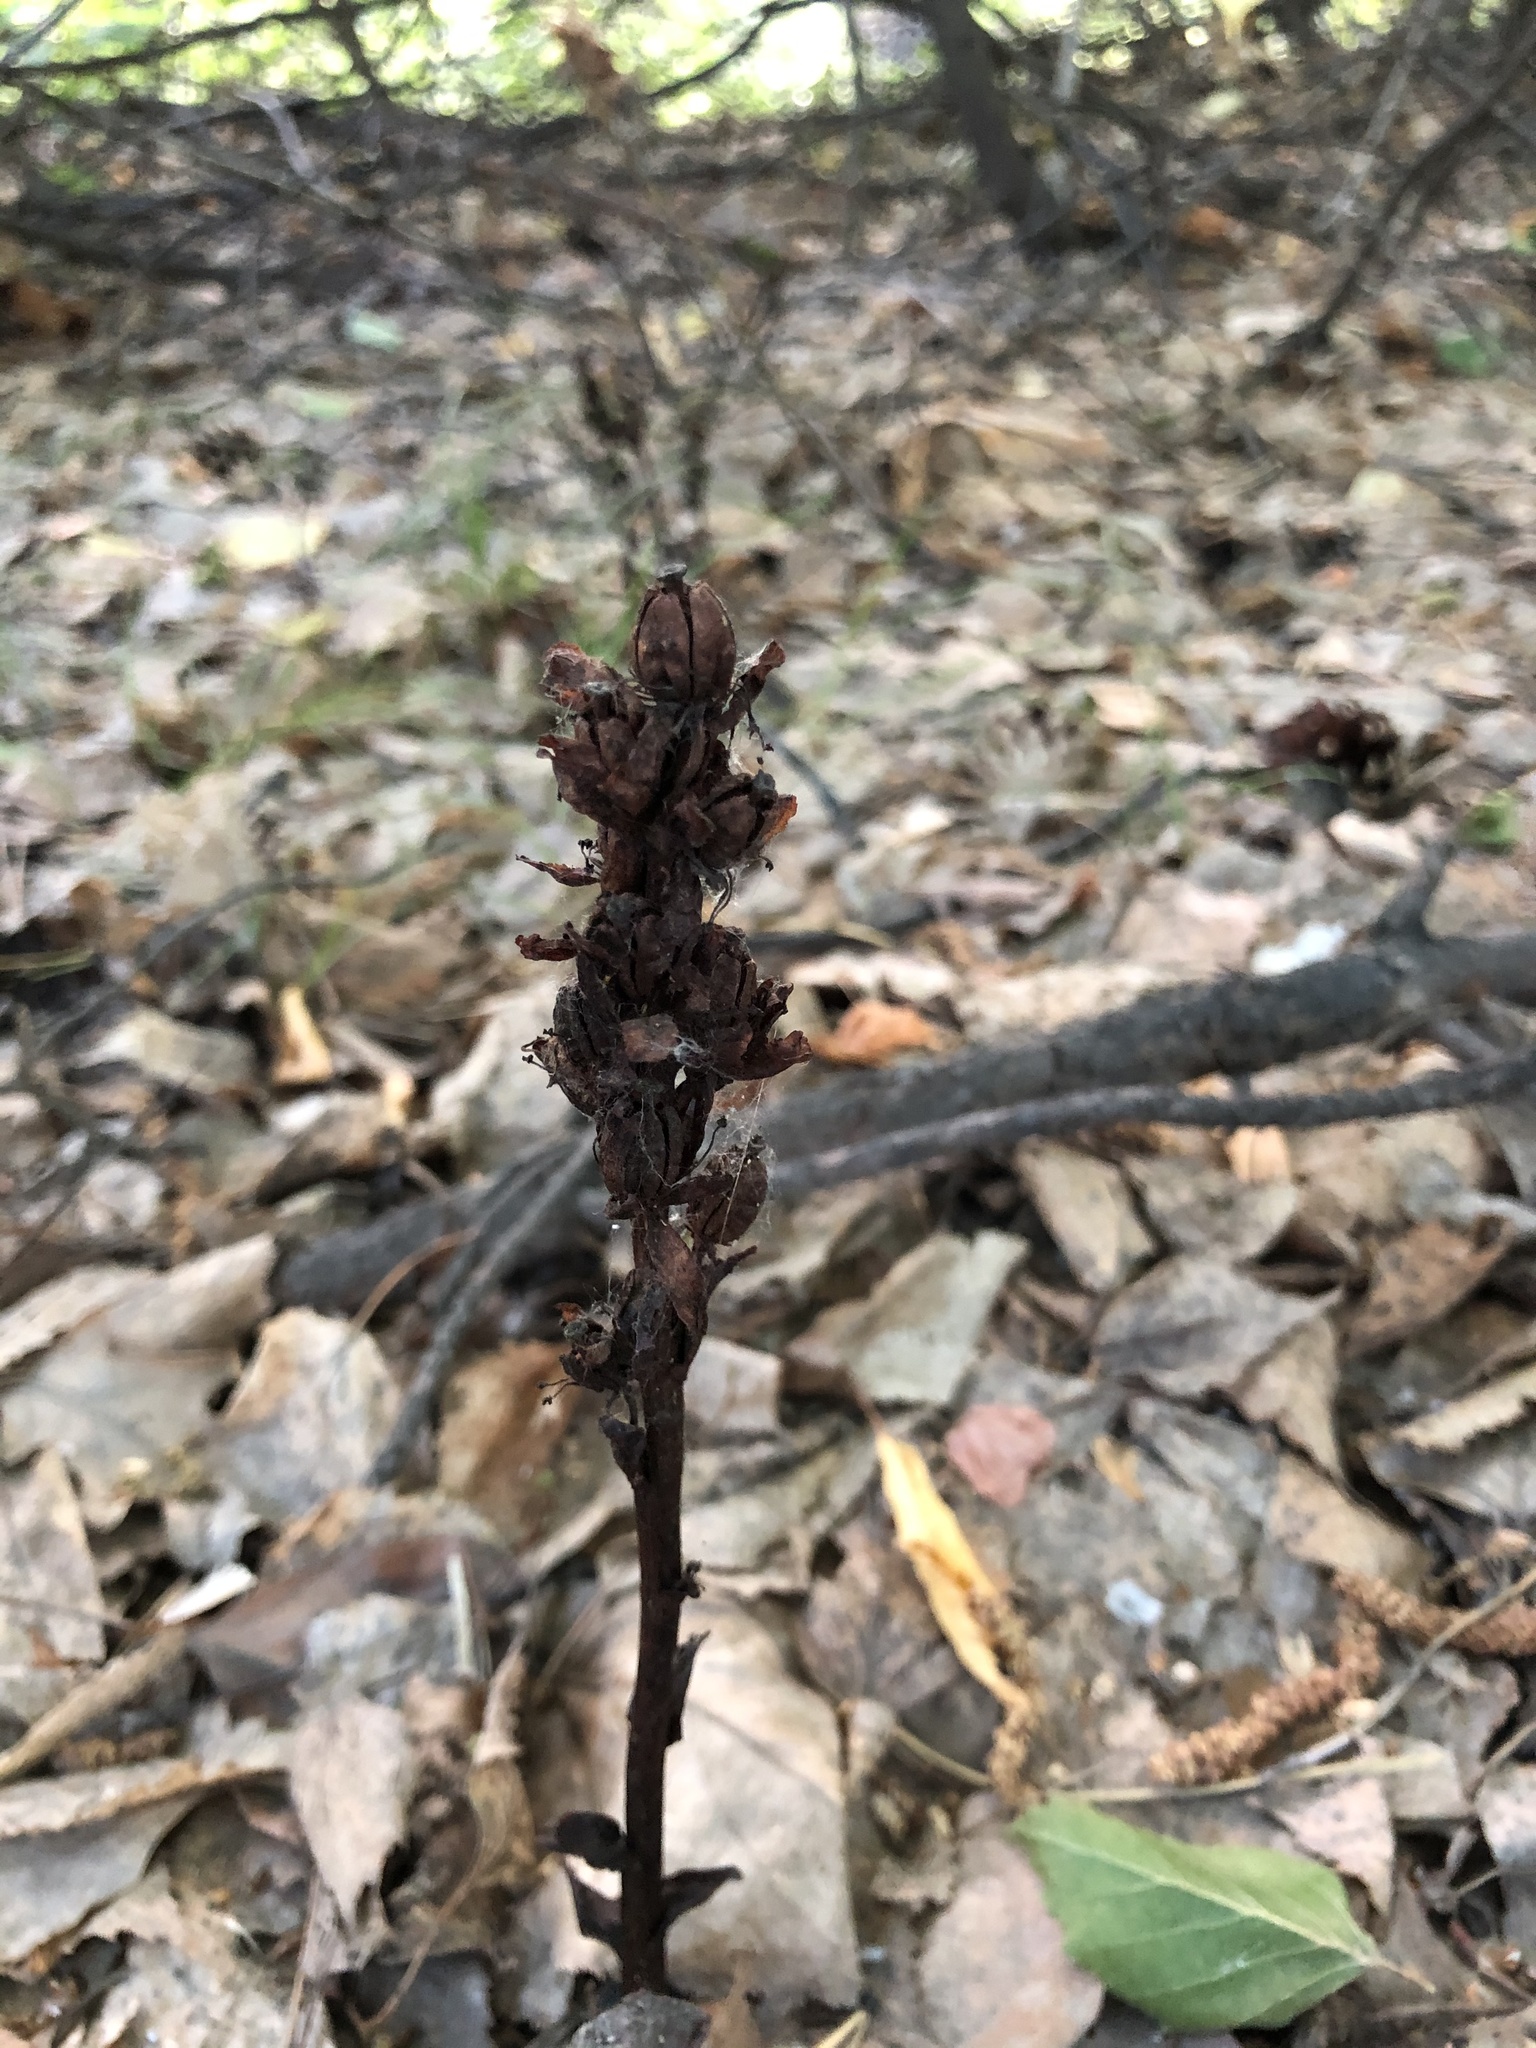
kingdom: Plantae
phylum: Tracheophyta
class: Magnoliopsida
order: Ericales
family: Ericaceae
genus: Hypopitys
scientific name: Hypopitys monotropa
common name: Yellow bird's-nest
